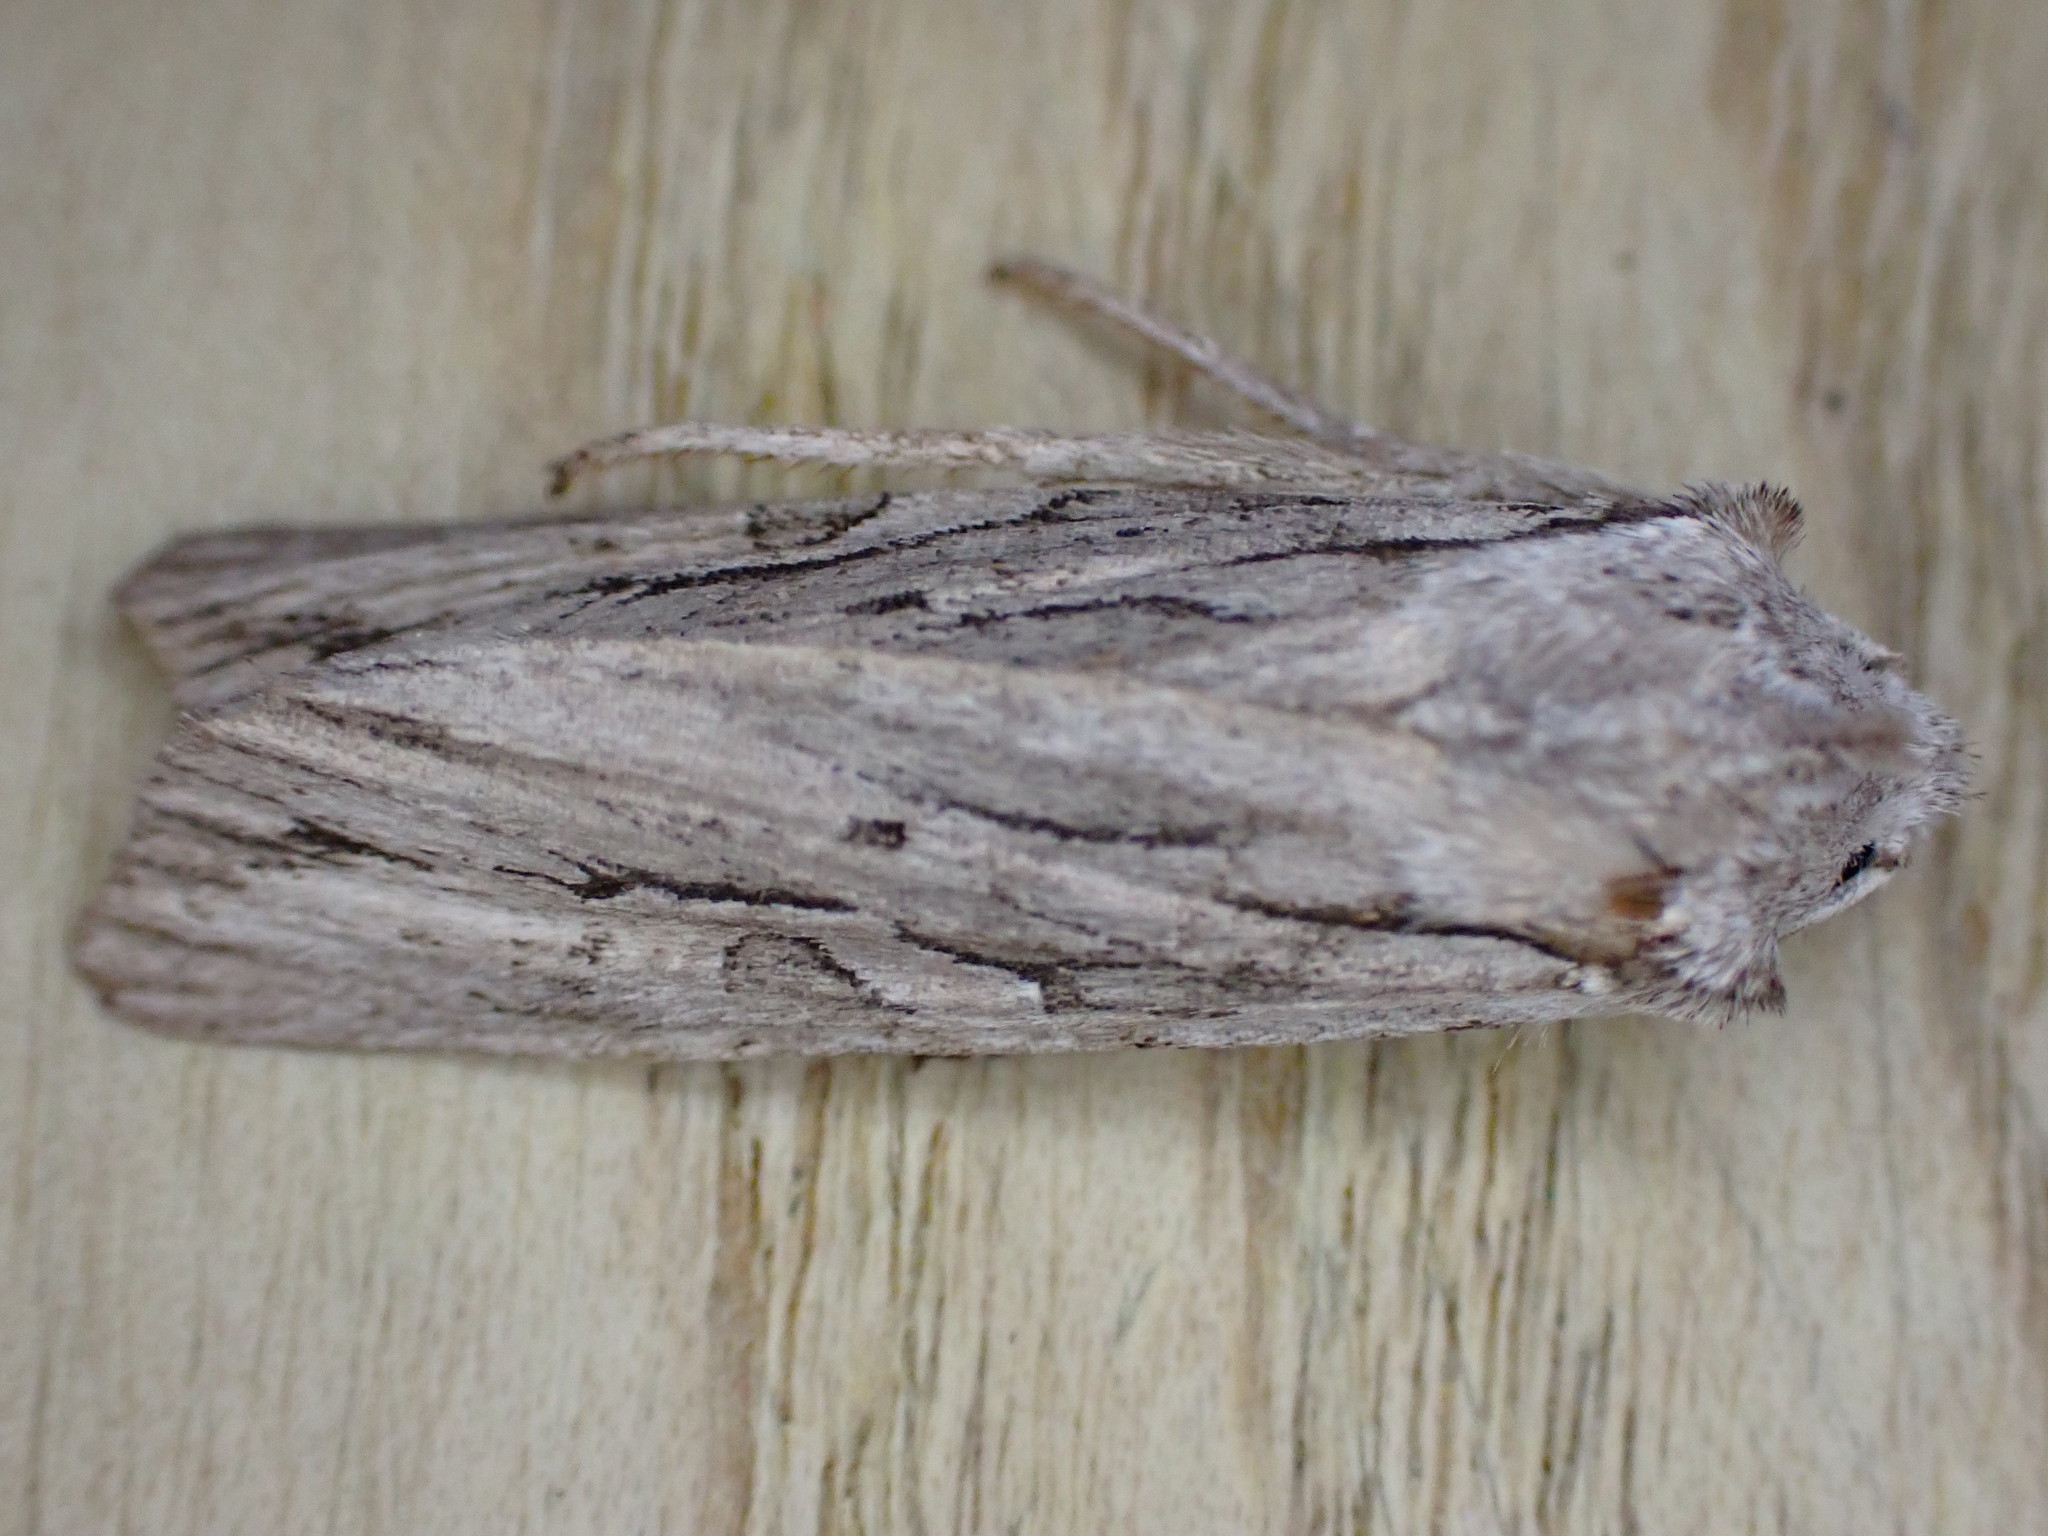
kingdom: Animalia
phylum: Arthropoda
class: Insecta
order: Lepidoptera
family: Noctuidae
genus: Lithophane
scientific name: Lithophane leautieri
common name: Blair's shoulder-knot
